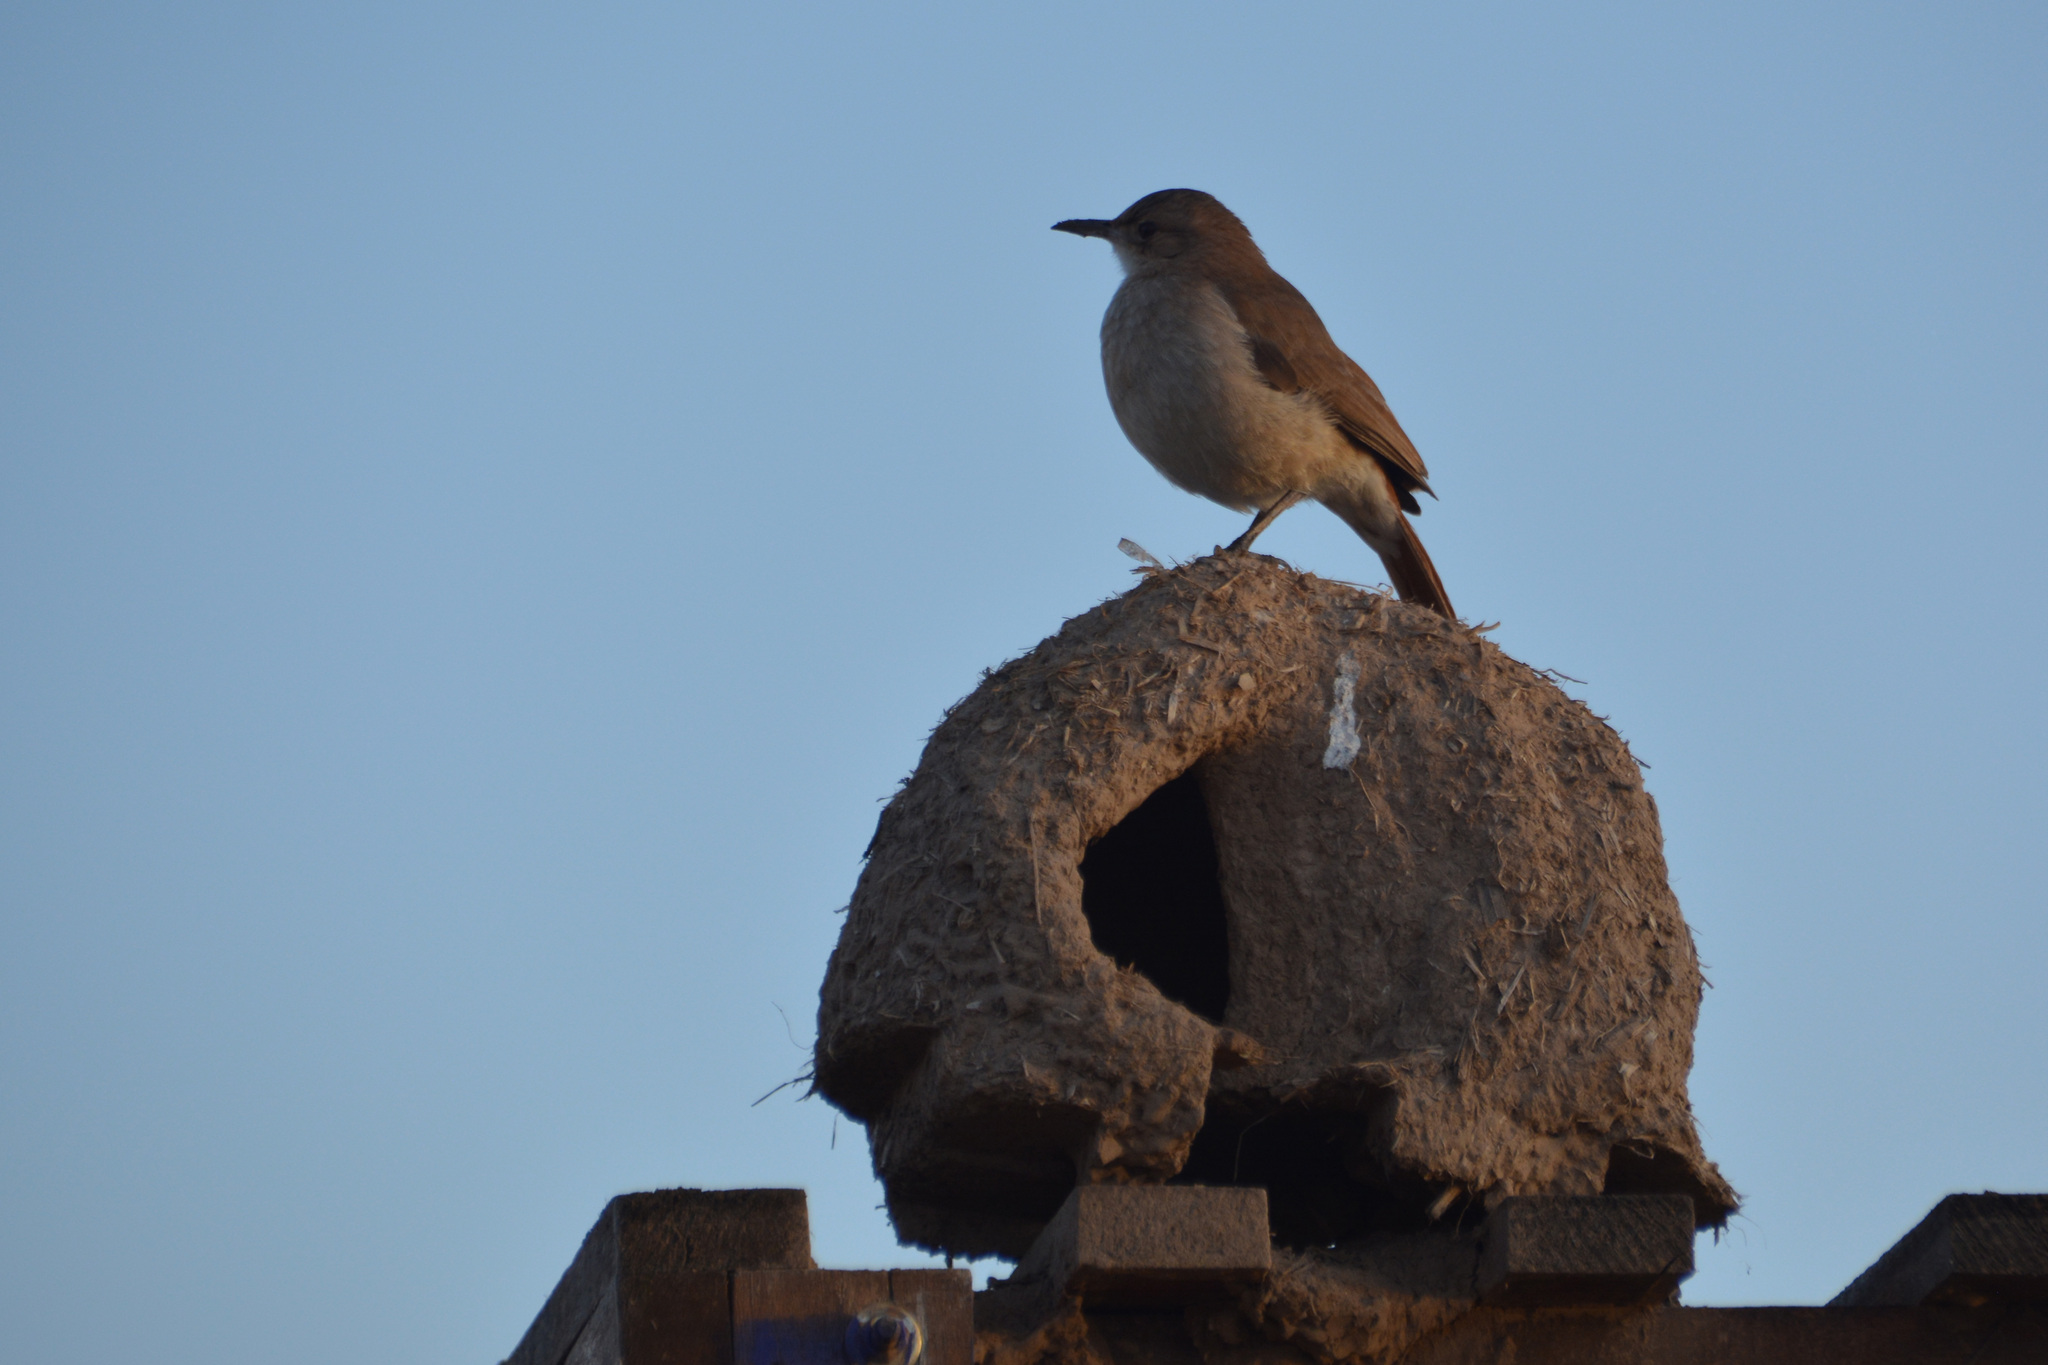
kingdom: Animalia
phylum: Chordata
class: Aves
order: Passeriformes
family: Furnariidae
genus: Furnarius
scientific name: Furnarius rufus
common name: Rufous hornero
